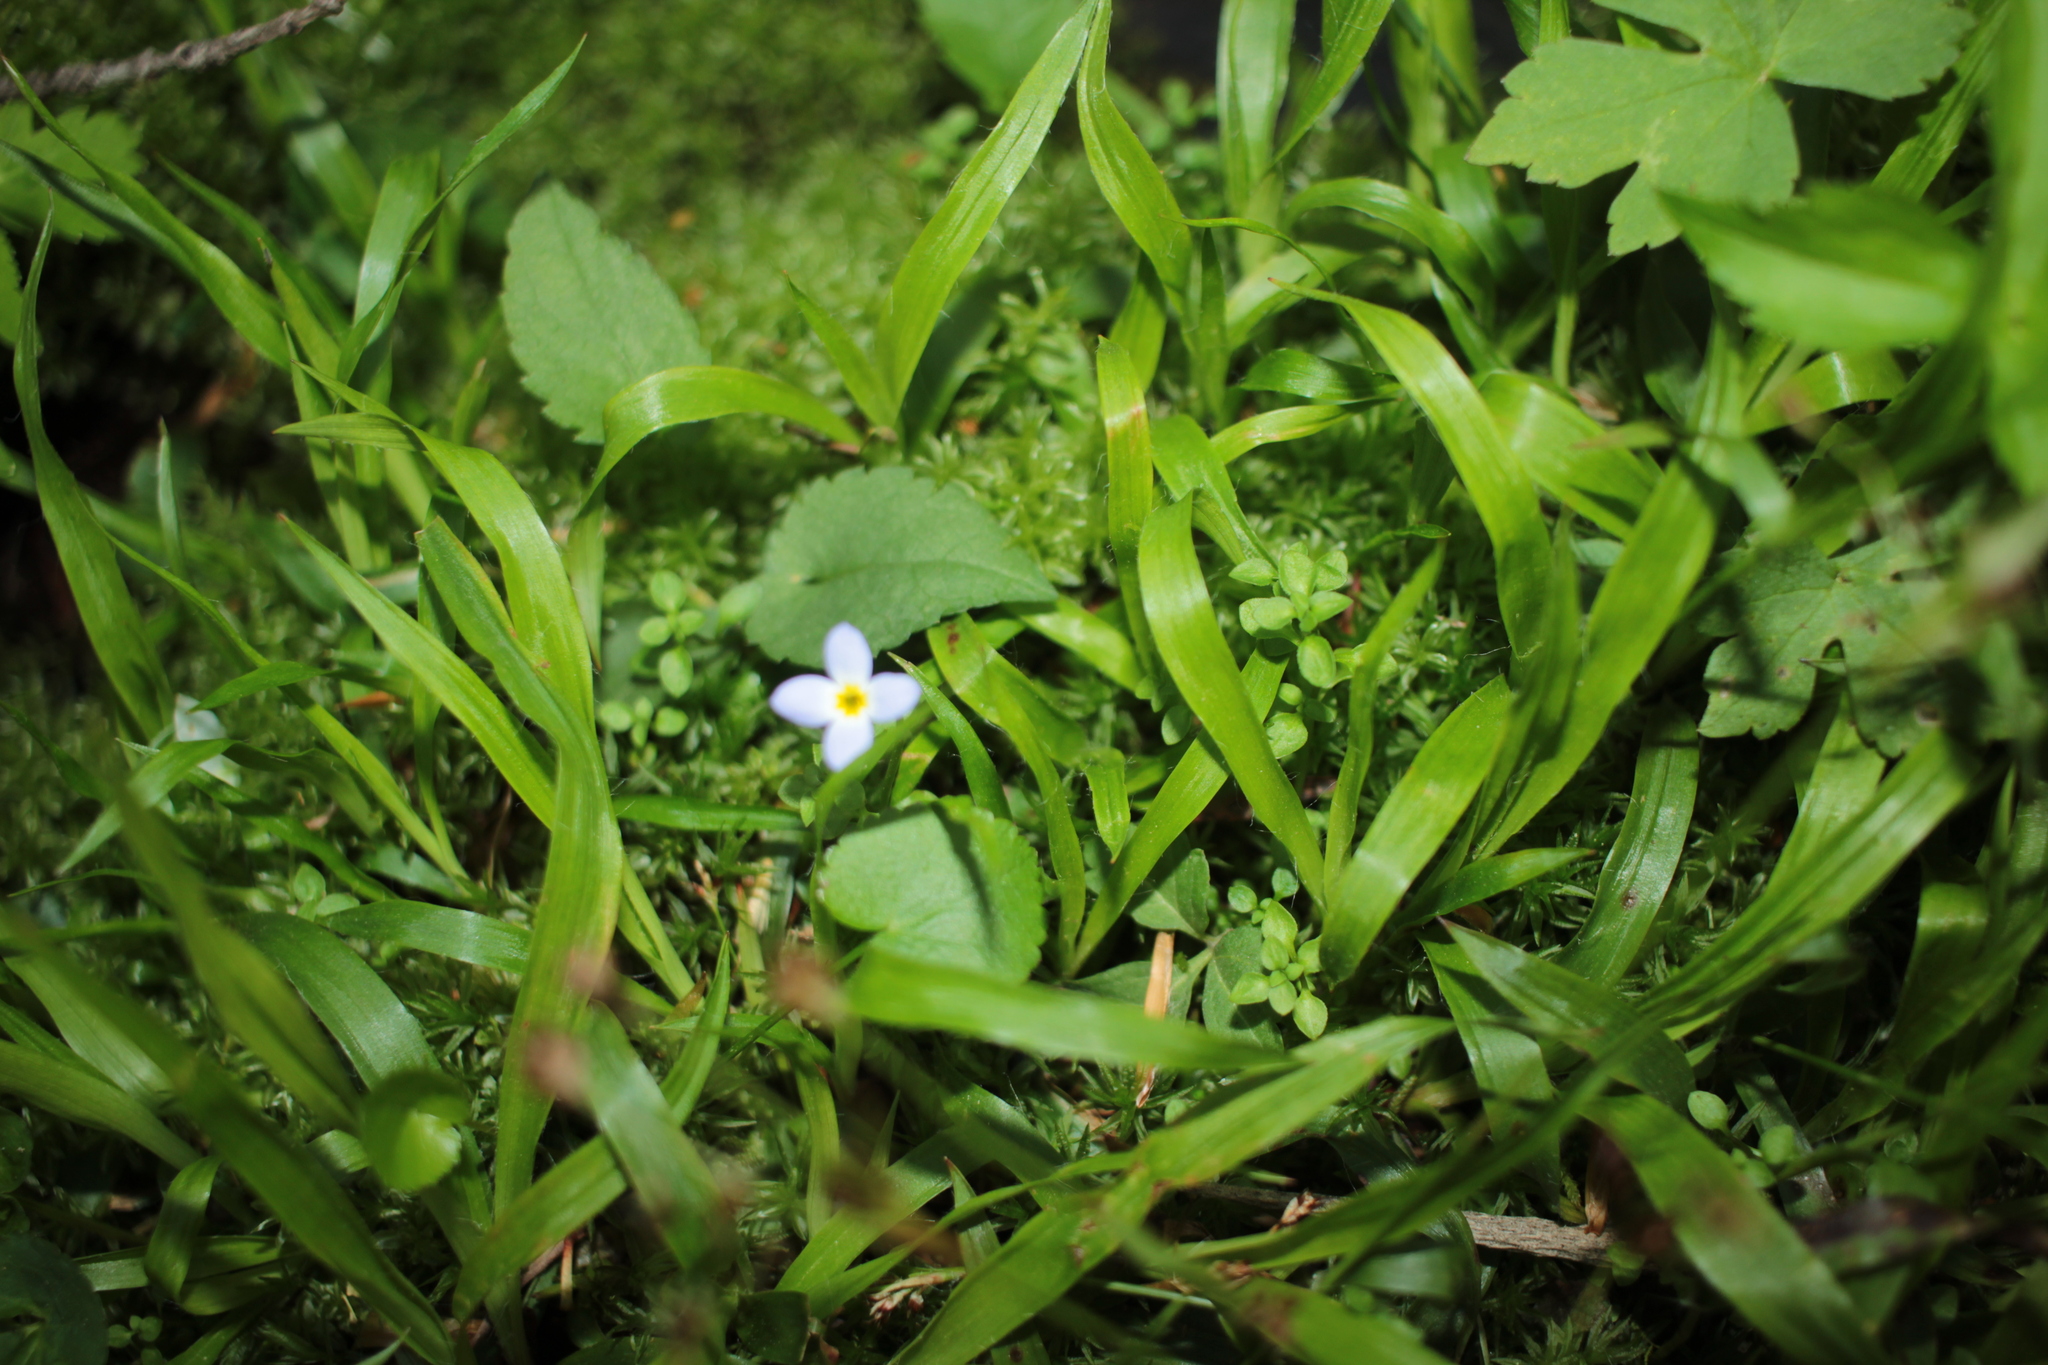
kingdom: Plantae
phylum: Tracheophyta
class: Magnoliopsida
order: Gentianales
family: Rubiaceae
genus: Houstonia
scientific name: Houstonia serpyllifolia
